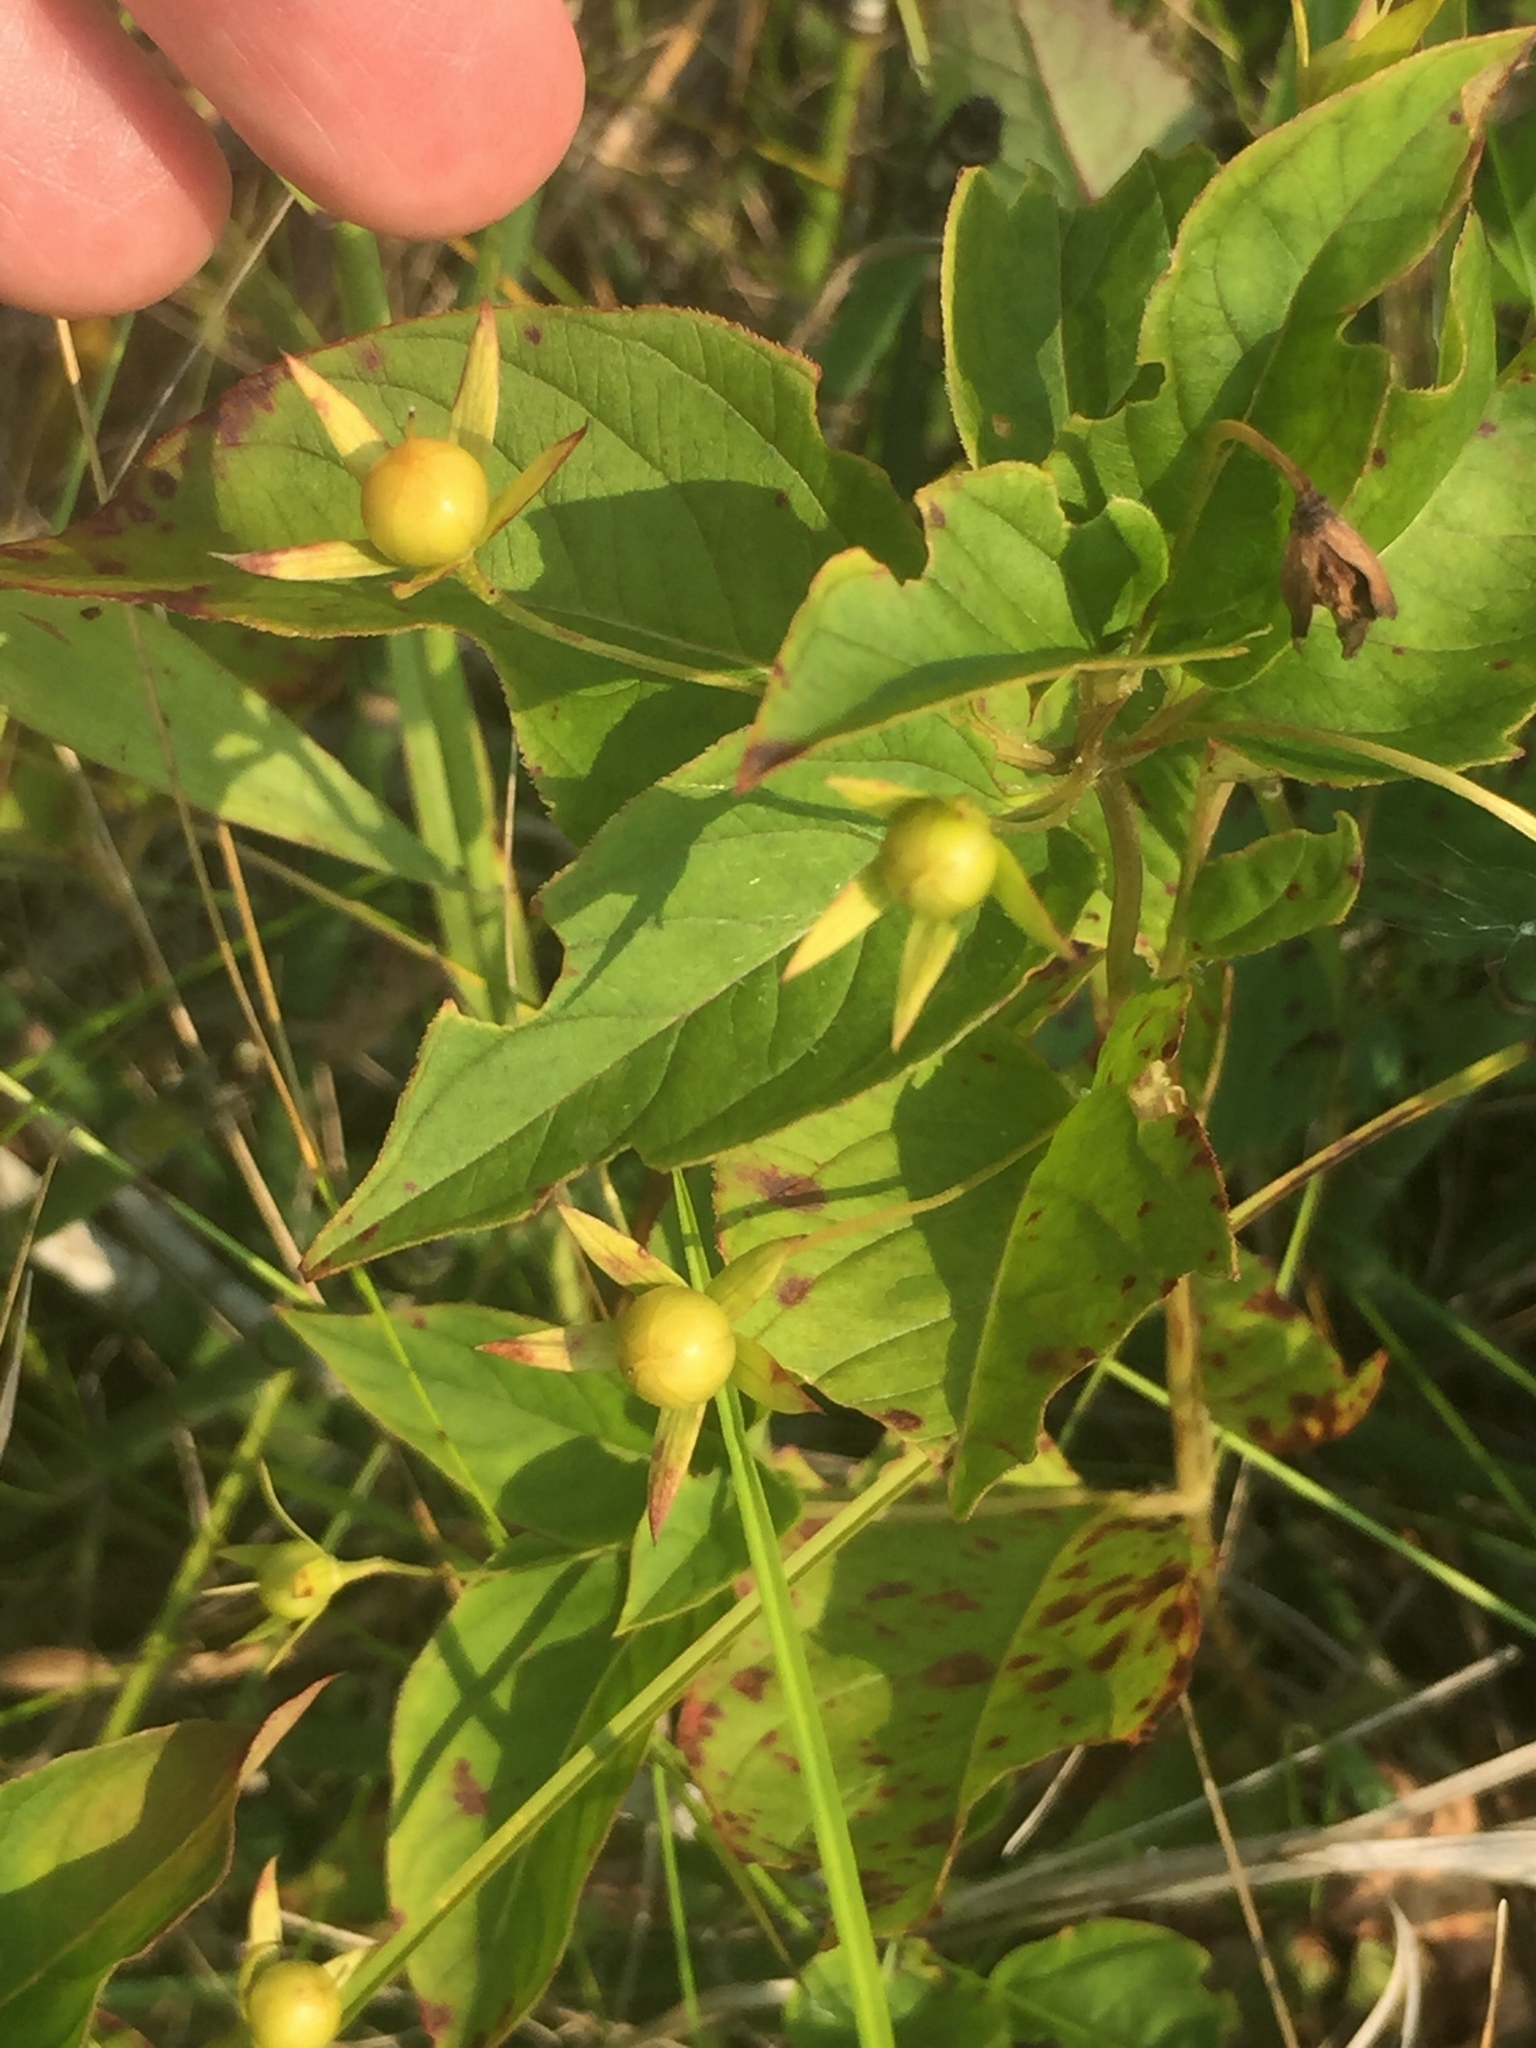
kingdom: Plantae
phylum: Tracheophyta
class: Magnoliopsida
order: Ericales
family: Primulaceae
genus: Lysimachia
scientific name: Lysimachia ciliata
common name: Fringed loosestrife
